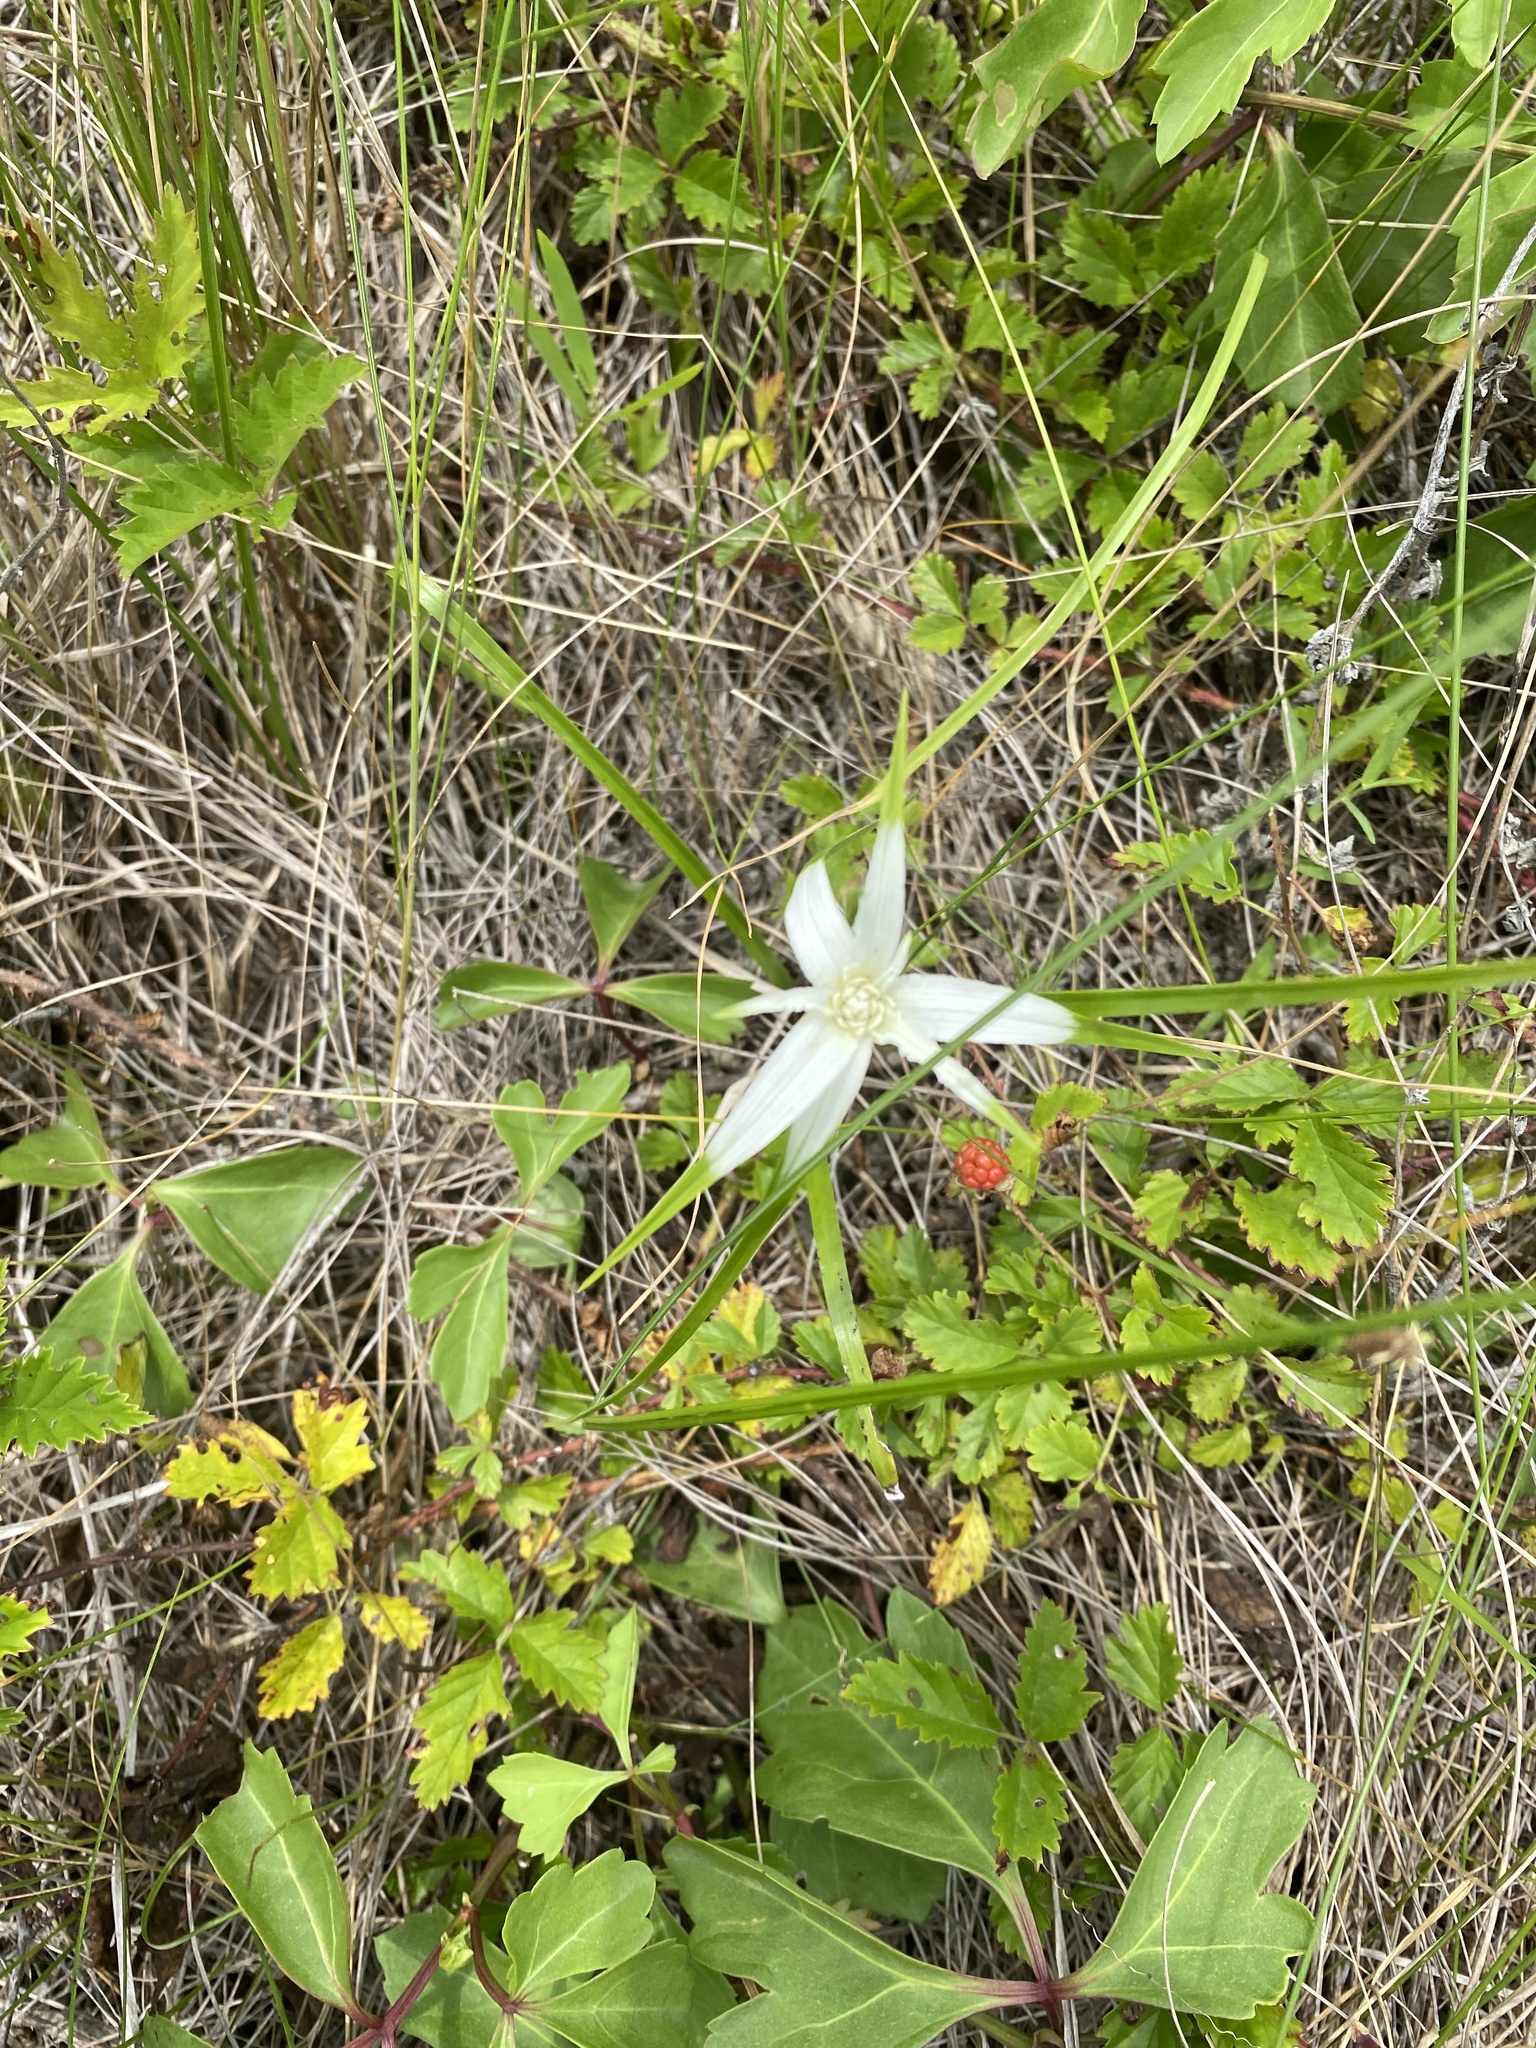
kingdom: Plantae
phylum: Tracheophyta
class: Liliopsida
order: Poales
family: Cyperaceae
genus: Rhynchospora
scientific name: Rhynchospora colorata
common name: Star sedge
